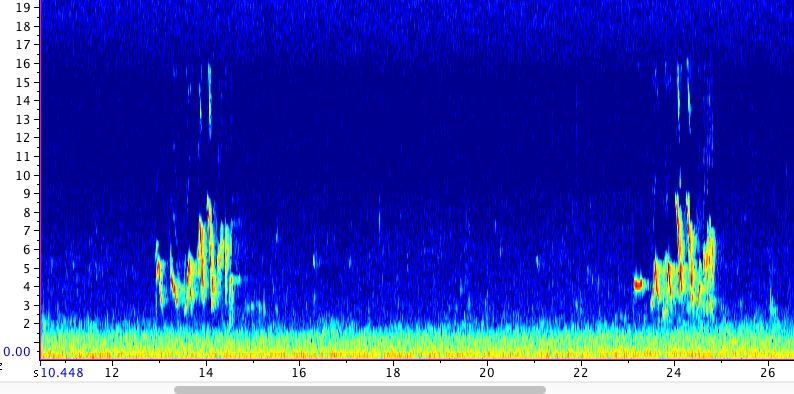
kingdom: Animalia
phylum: Chordata
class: Aves
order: Passeriformes
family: Passerellidae
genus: Passerella
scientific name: Passerella unalaschcensis
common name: Sooty fox sparrow
